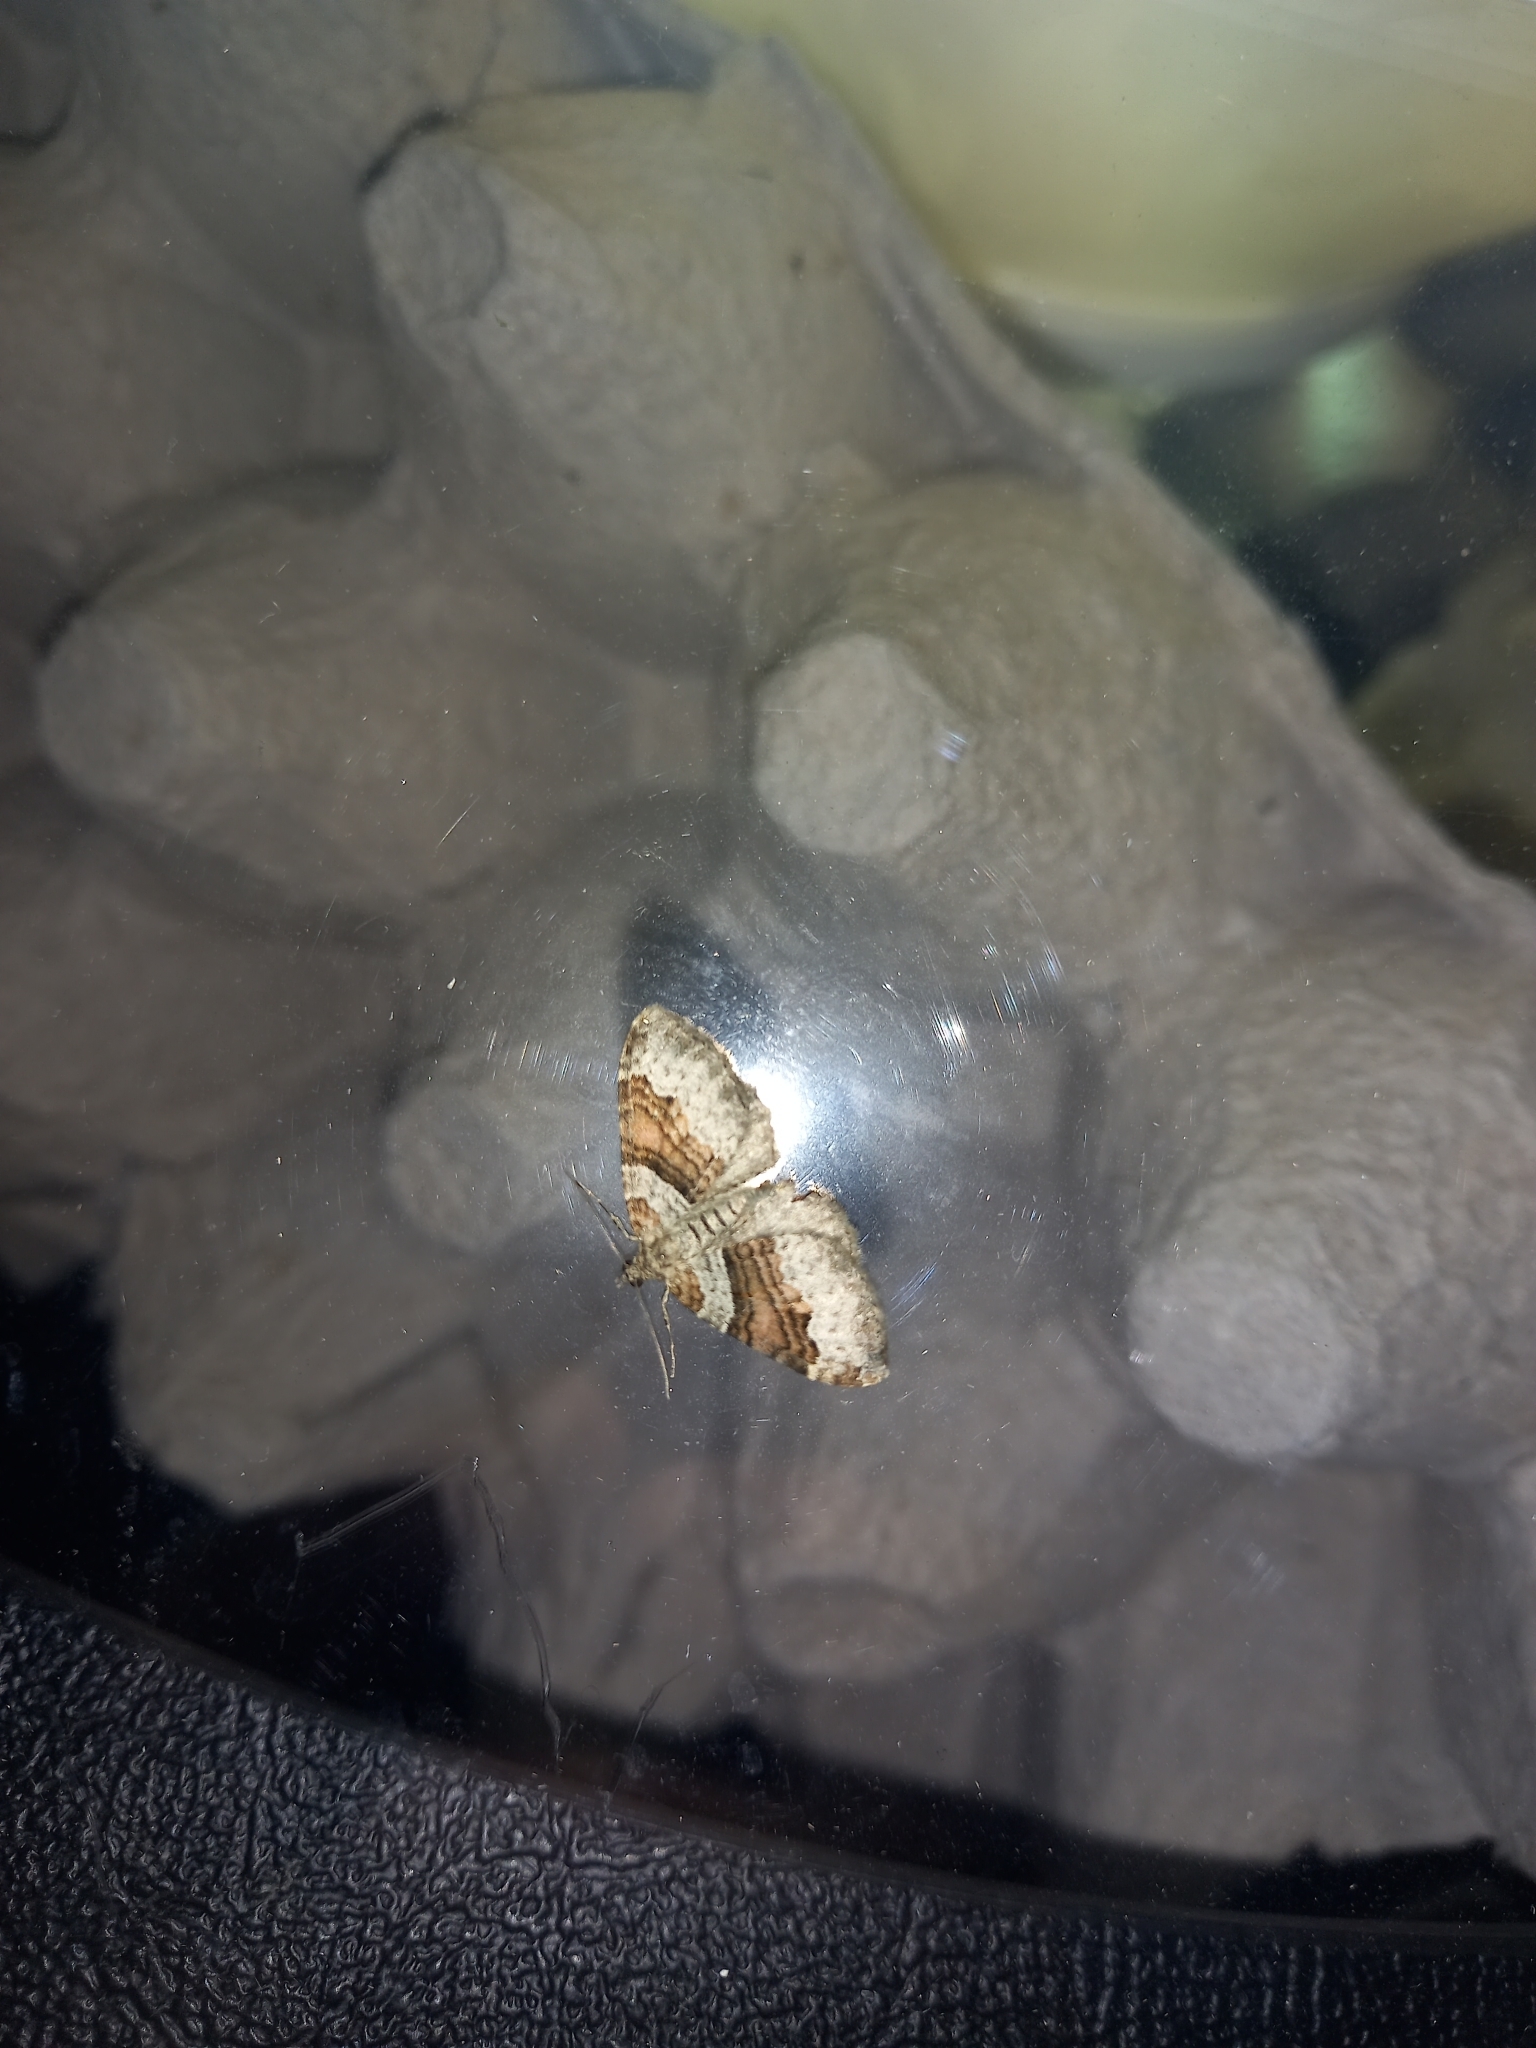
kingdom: Animalia
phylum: Arthropoda
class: Insecta
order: Lepidoptera
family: Geometridae
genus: Xanthorhoe
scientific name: Xanthorhoe designata
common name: Flame carpet
